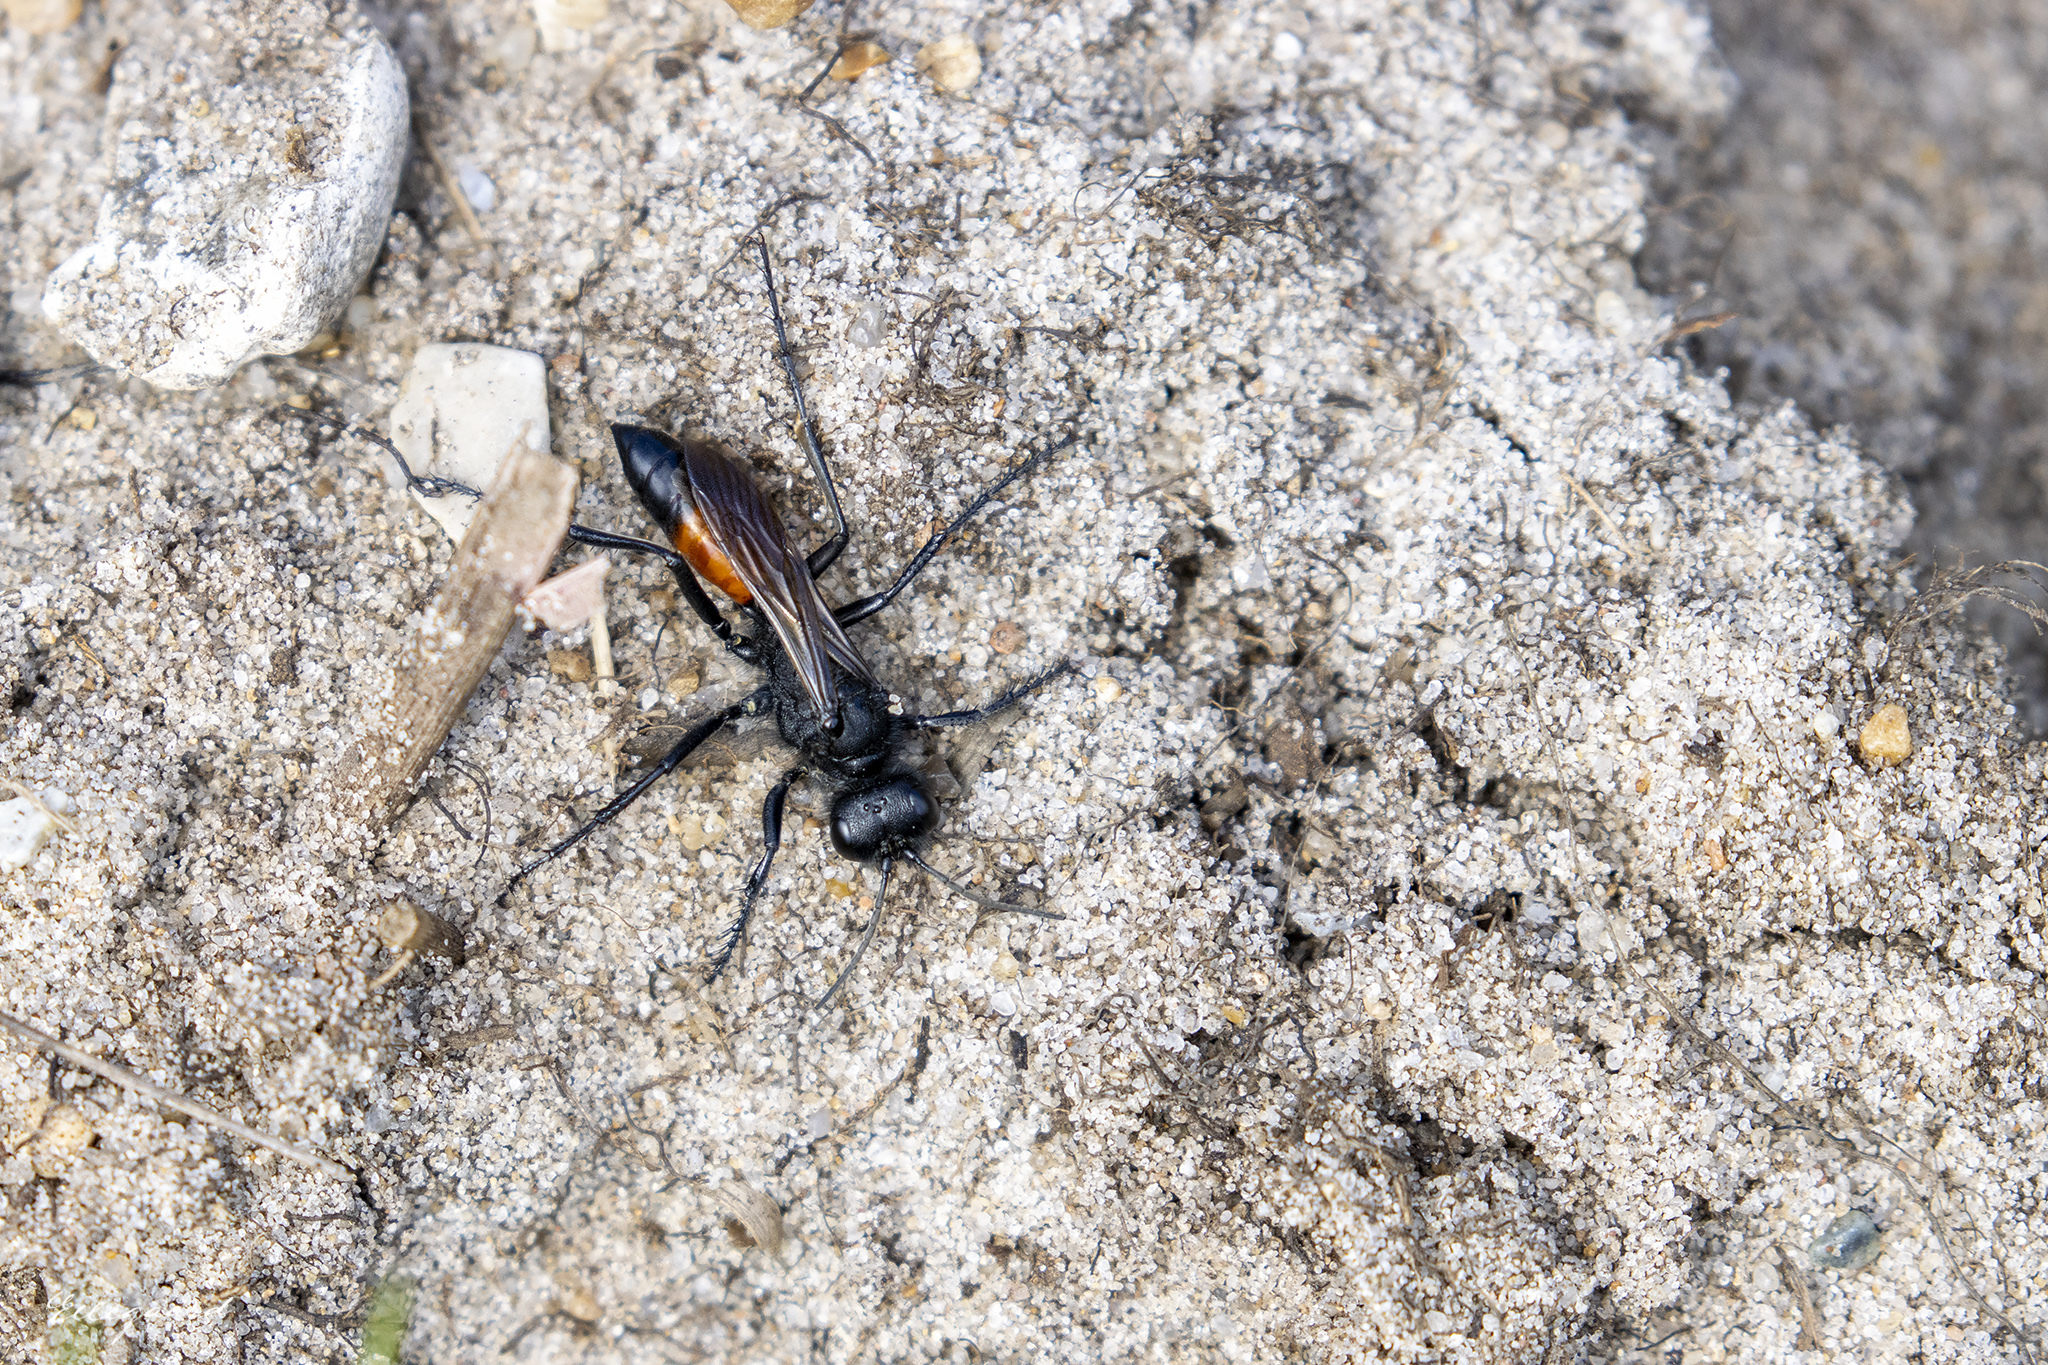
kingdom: Animalia
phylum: Arthropoda
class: Insecta
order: Hymenoptera
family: Sphecidae
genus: Podalonia
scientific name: Podalonia hirsuta
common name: Hairy sand wasp
